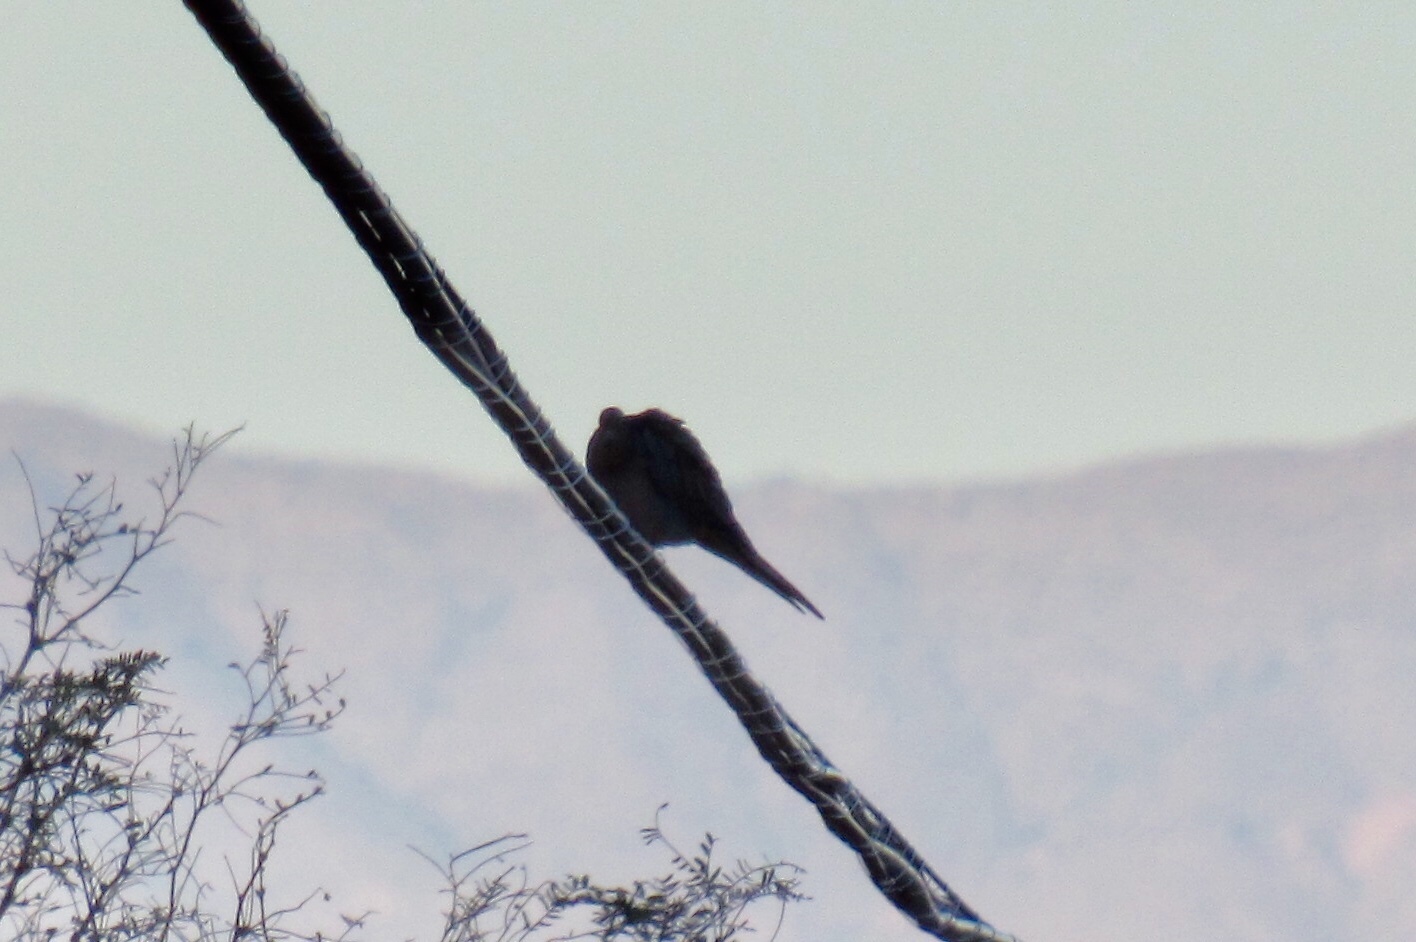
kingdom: Animalia
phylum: Chordata
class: Aves
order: Columbiformes
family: Columbidae
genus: Zenaida
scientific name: Zenaida macroura
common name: Mourning dove
